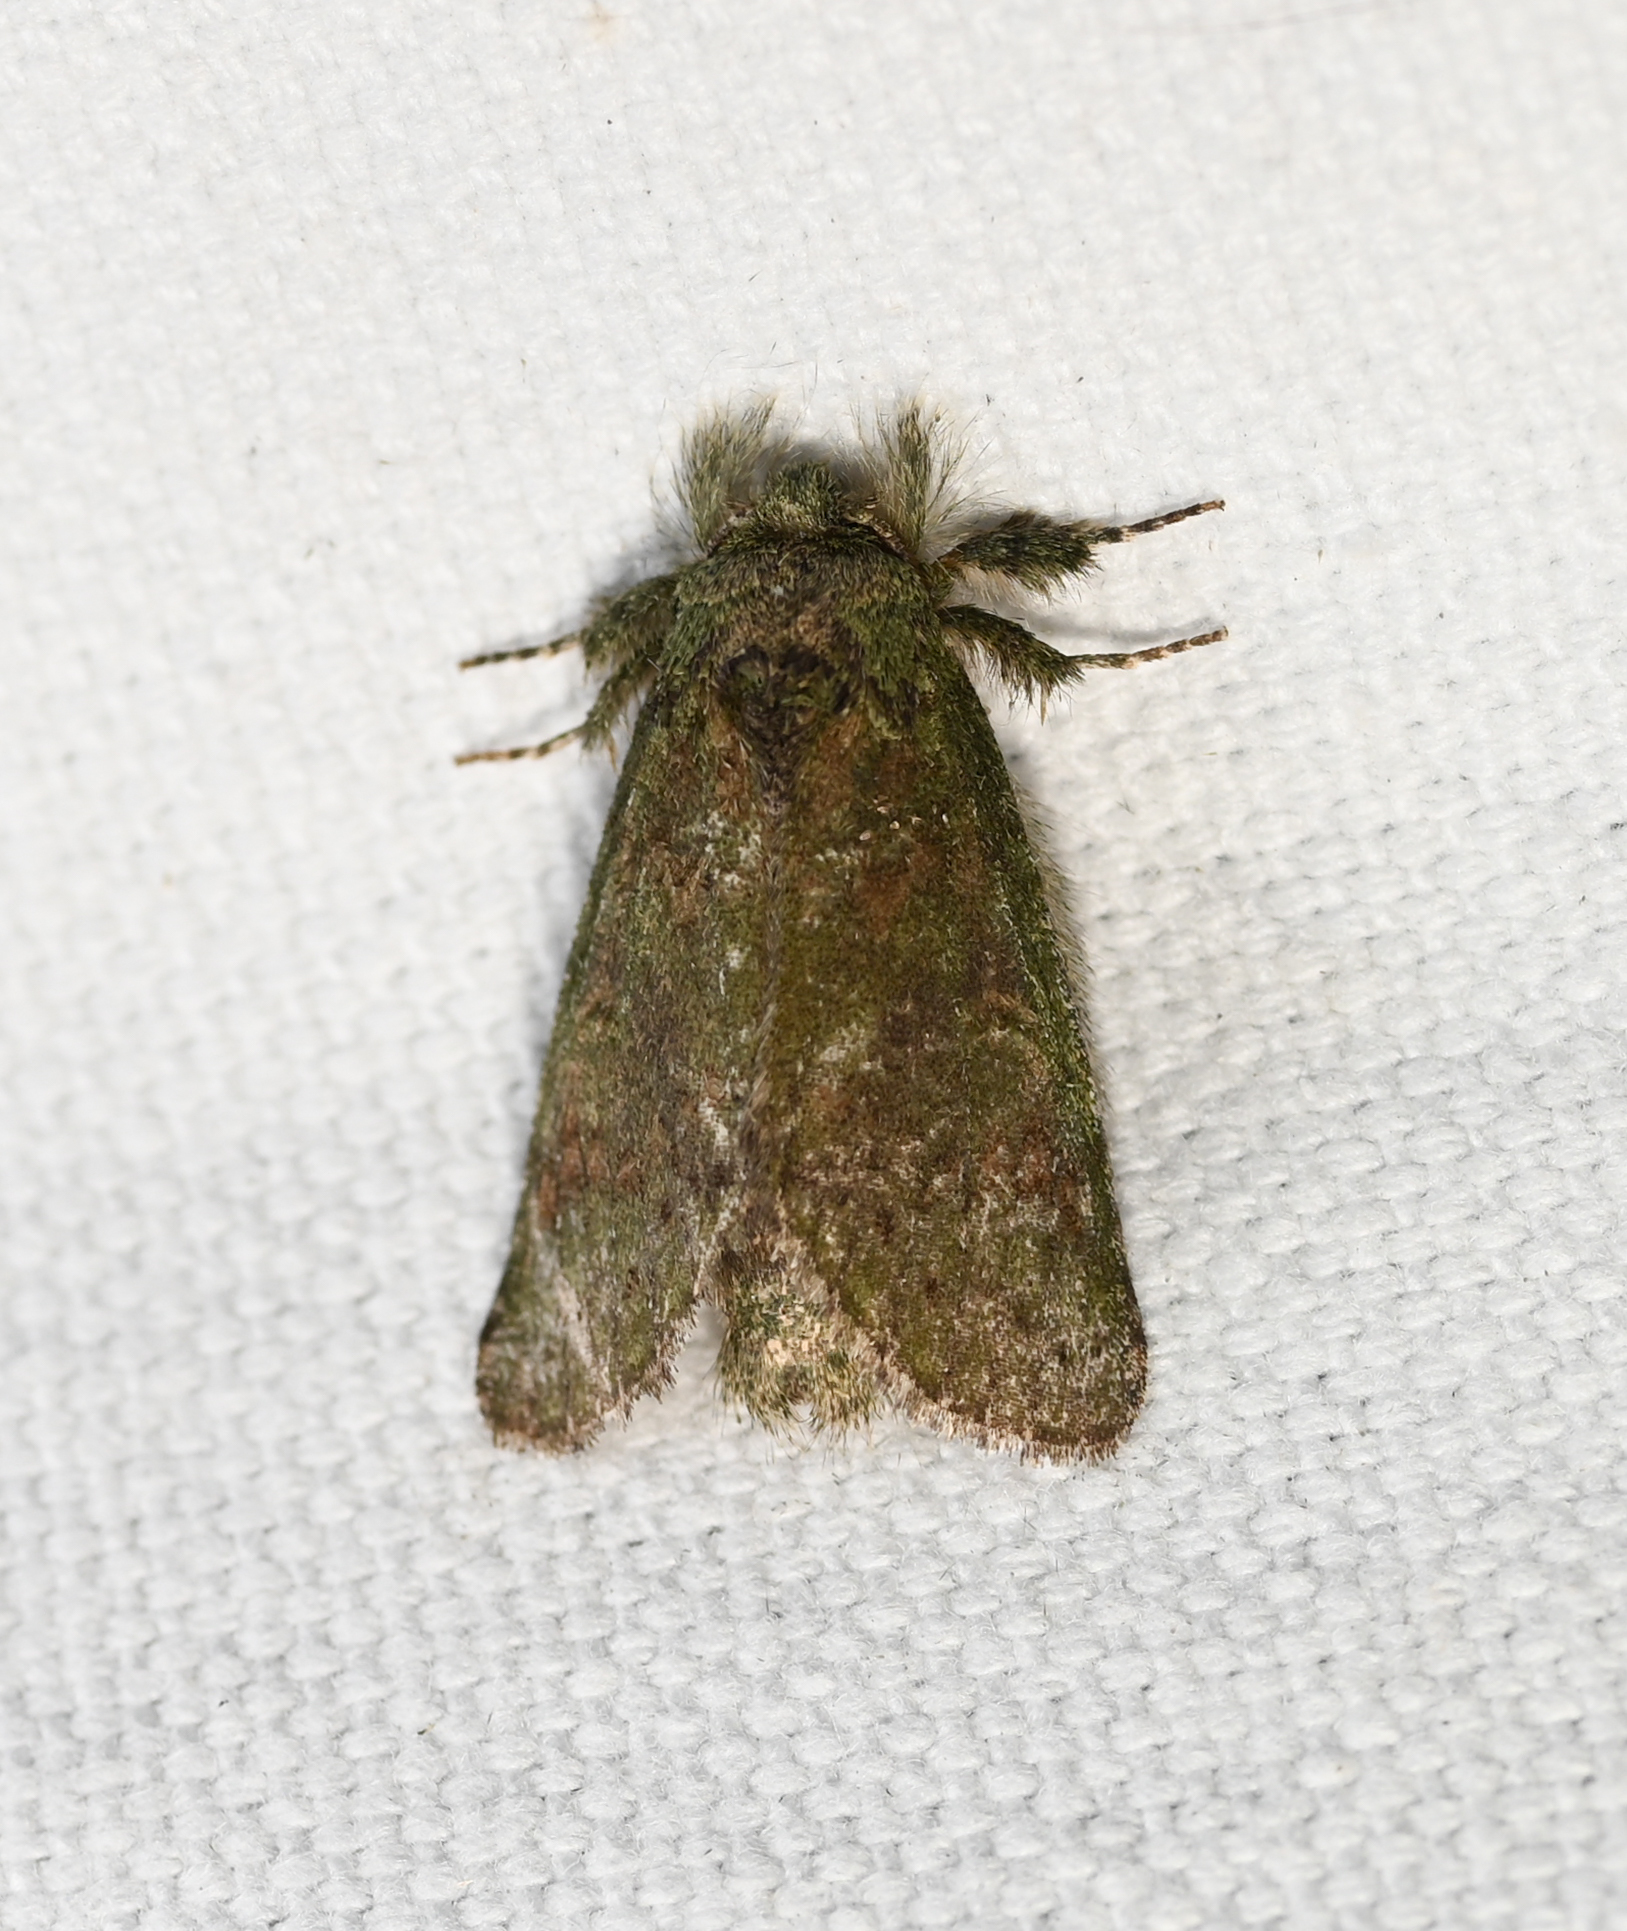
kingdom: Animalia
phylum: Arthropoda
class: Insecta
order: Lepidoptera
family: Notodontidae
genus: Disphragis
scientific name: Disphragis Cecrita guttivitta
